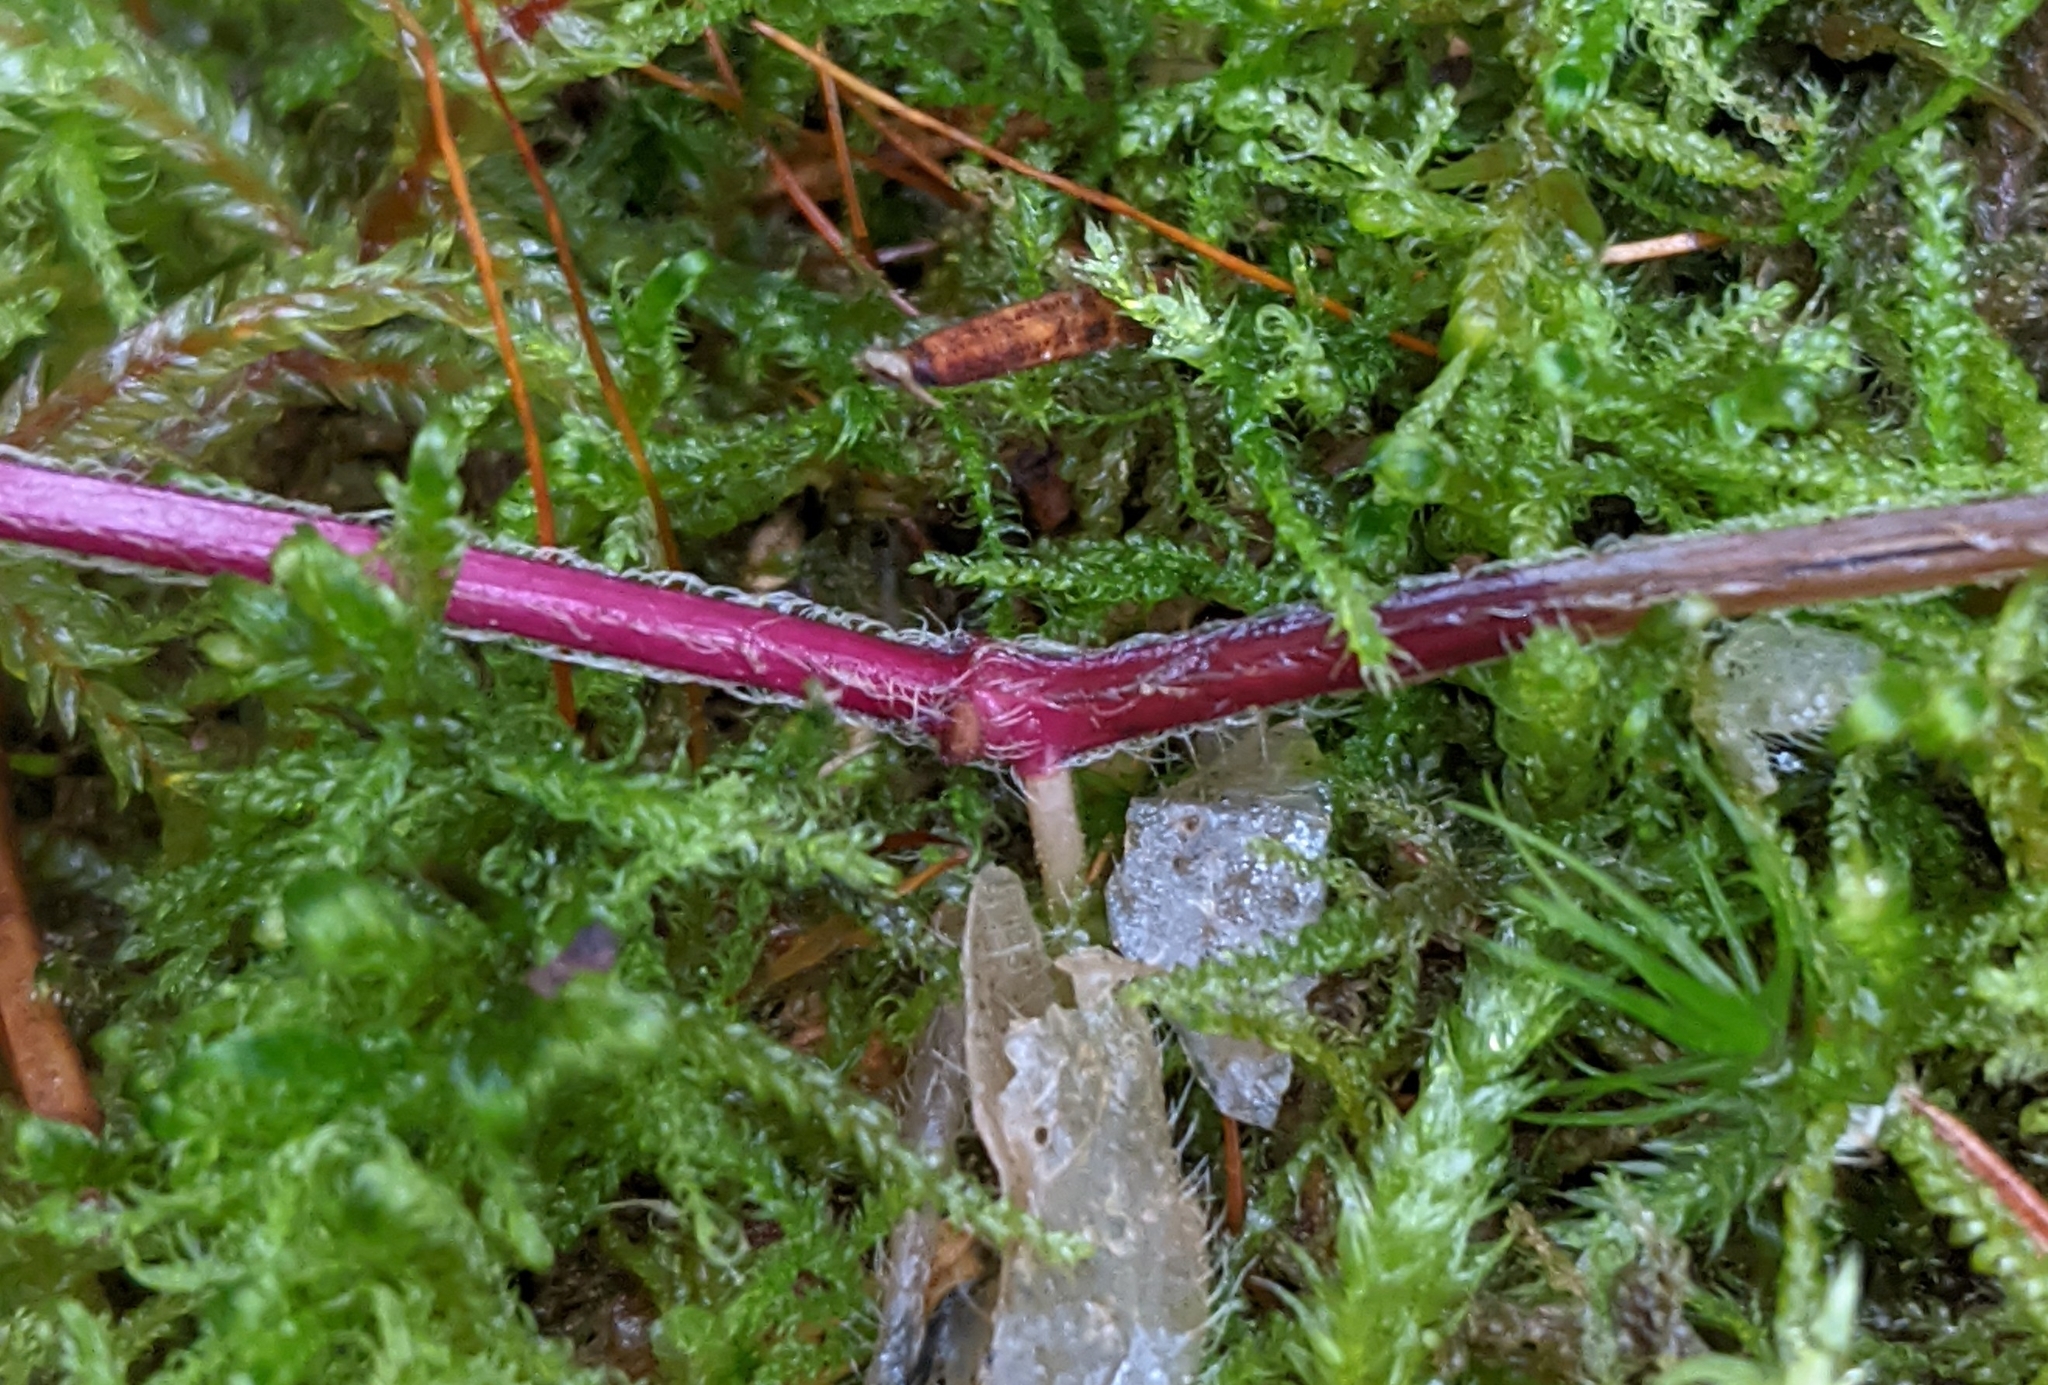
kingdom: Plantae
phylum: Tracheophyta
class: Magnoliopsida
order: Lamiales
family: Lamiaceae
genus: Lamium
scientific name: Lamium galeobdolon
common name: Yellow archangel
